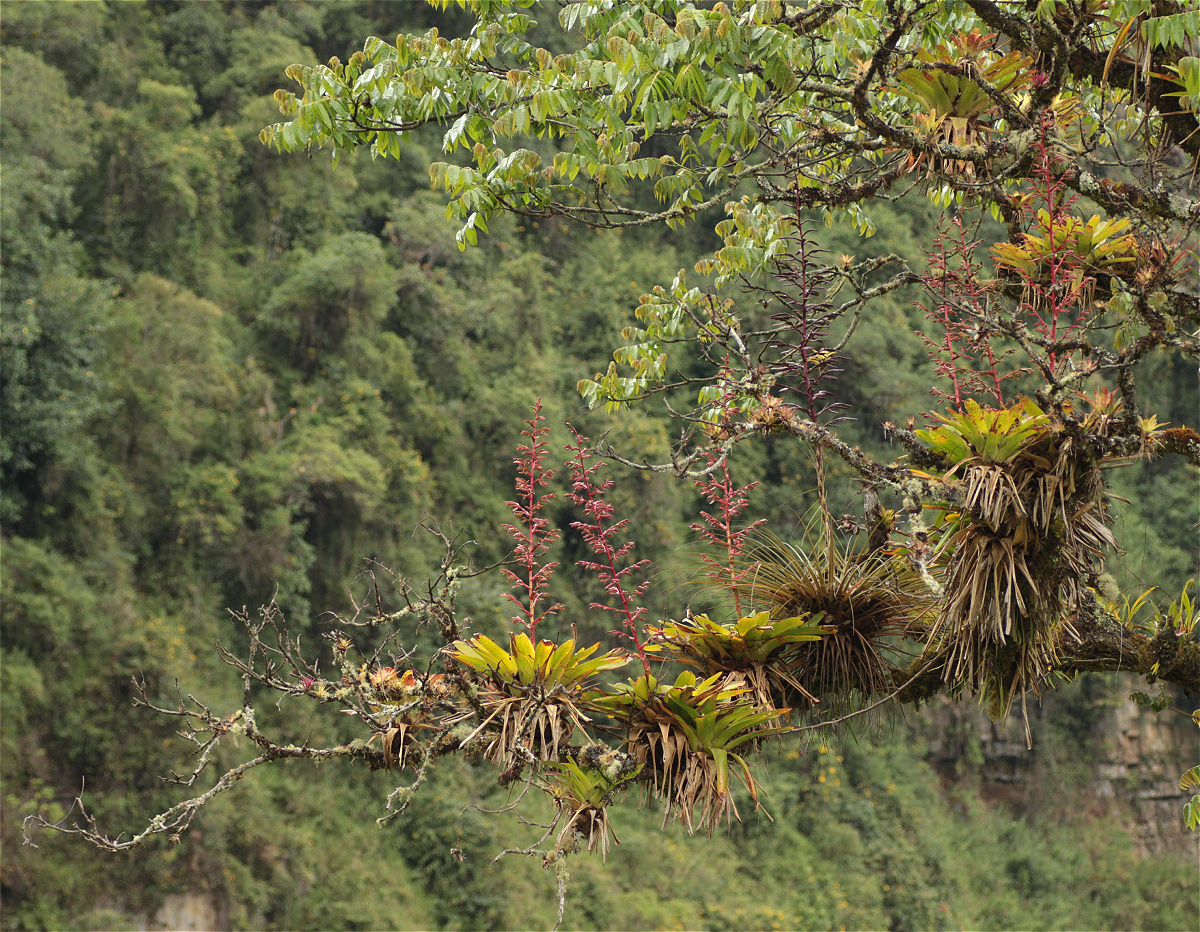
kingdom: Plantae
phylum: Tracheophyta
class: Liliopsida
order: Poales
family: Bromeliaceae
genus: Tillandsia
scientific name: Tillandsia tovarensis
